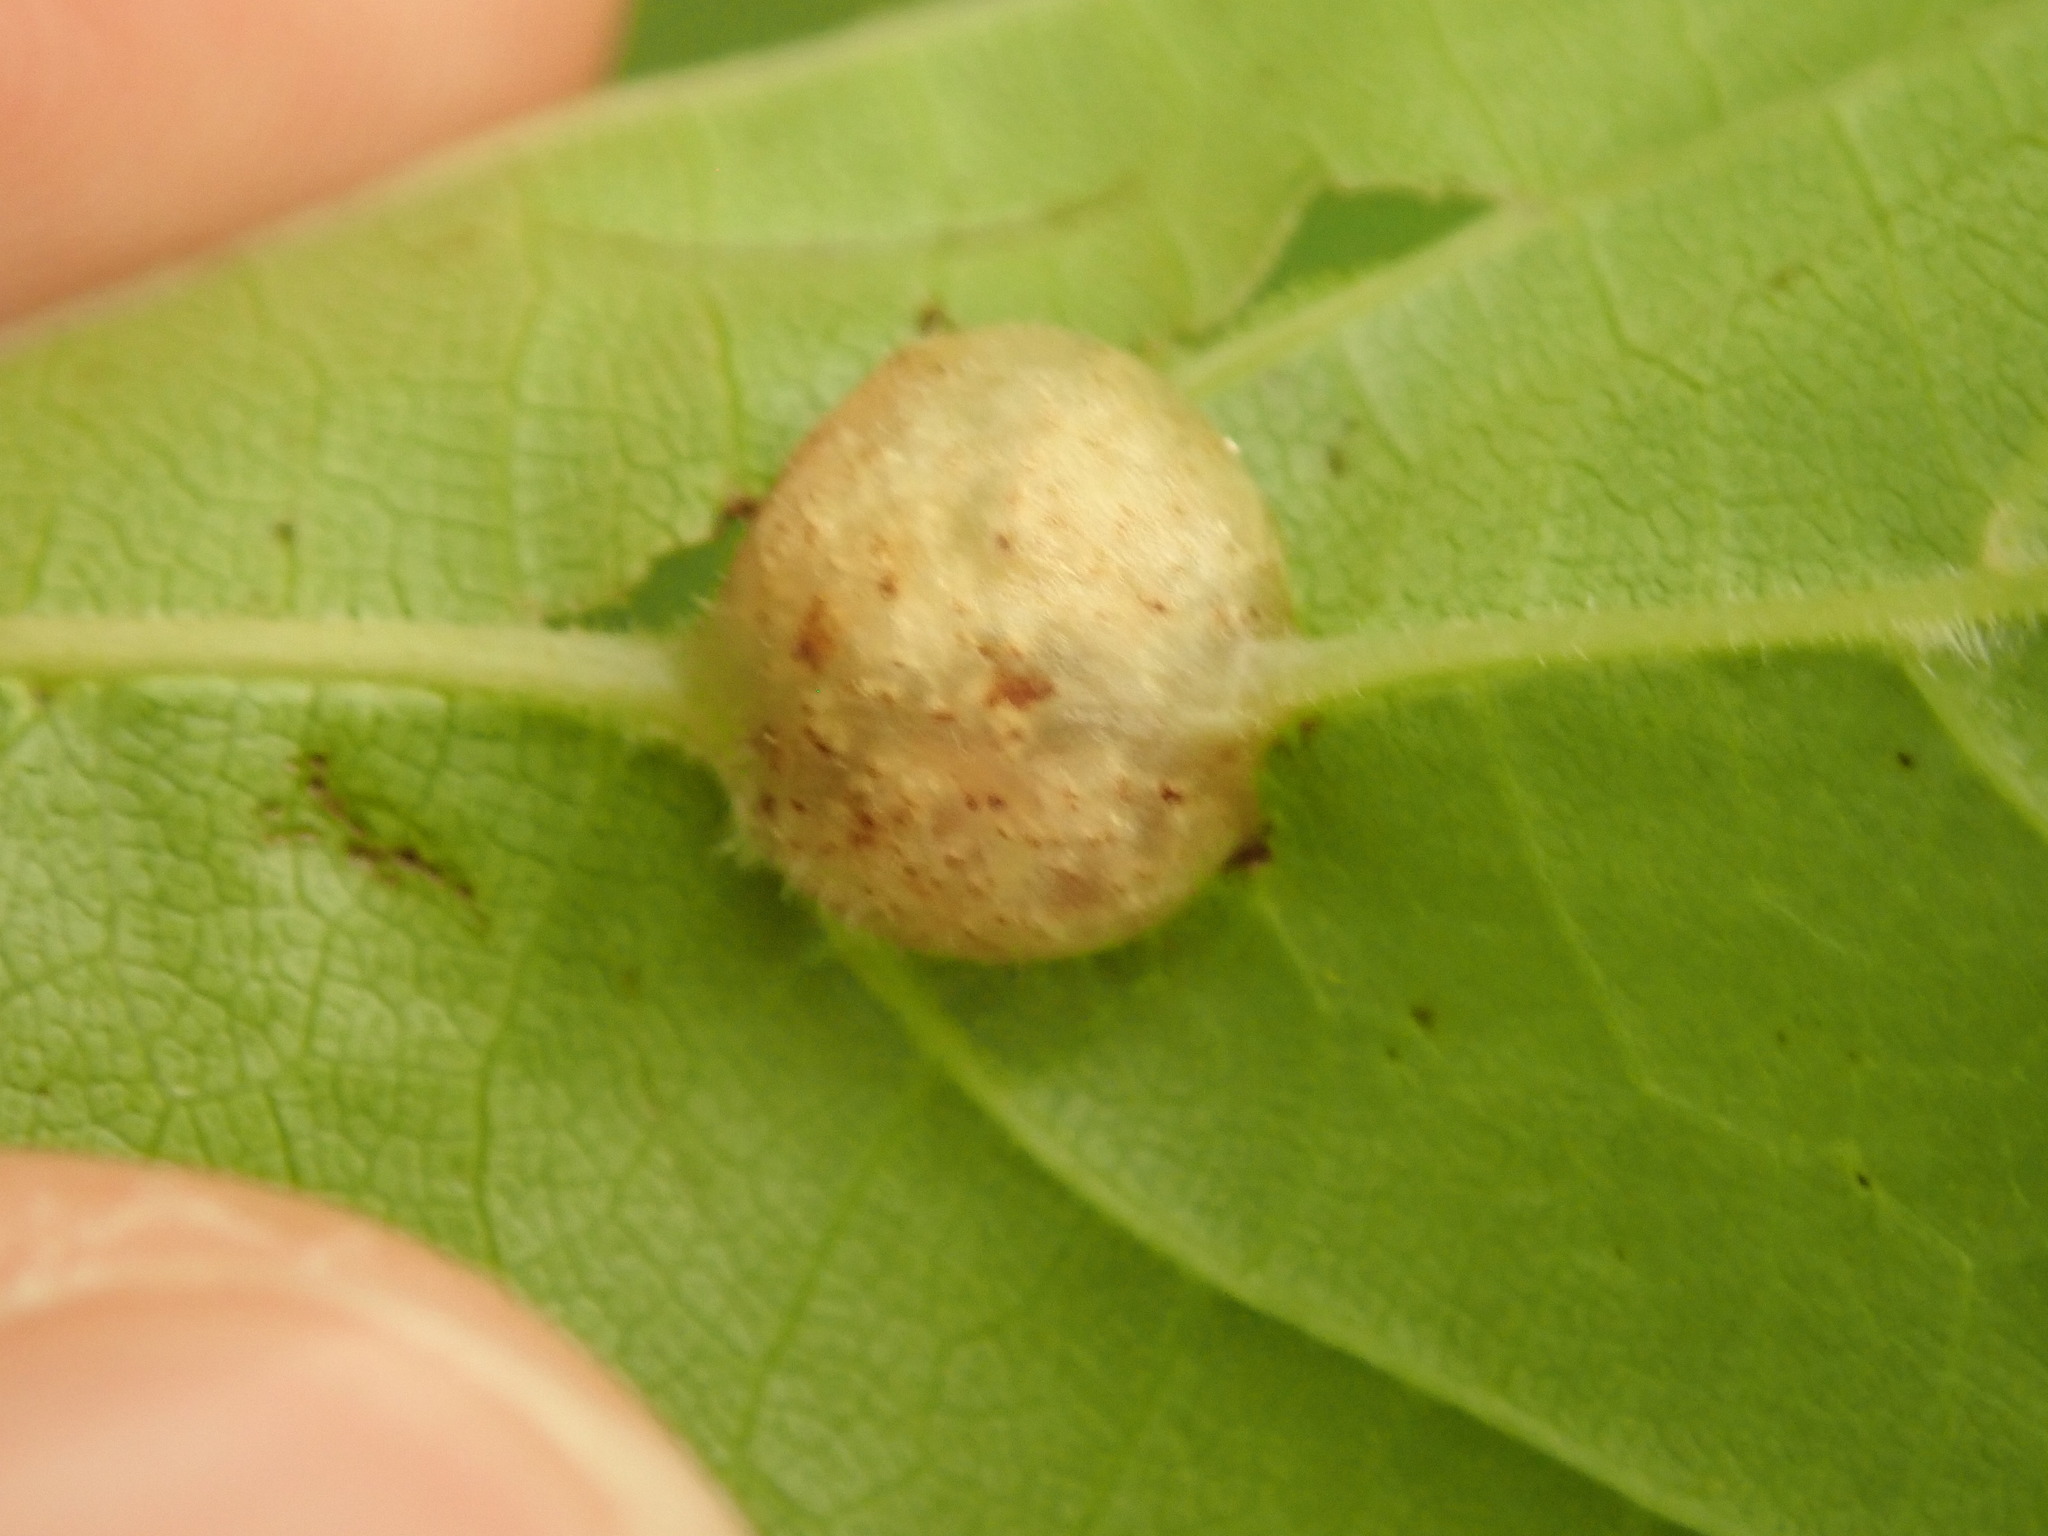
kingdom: Animalia
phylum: Arthropoda
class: Insecta
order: Diptera
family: Cecidomyiidae
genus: Vitisiella
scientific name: Vitisiella brevicauda
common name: Grape tumid gallmaker midge
